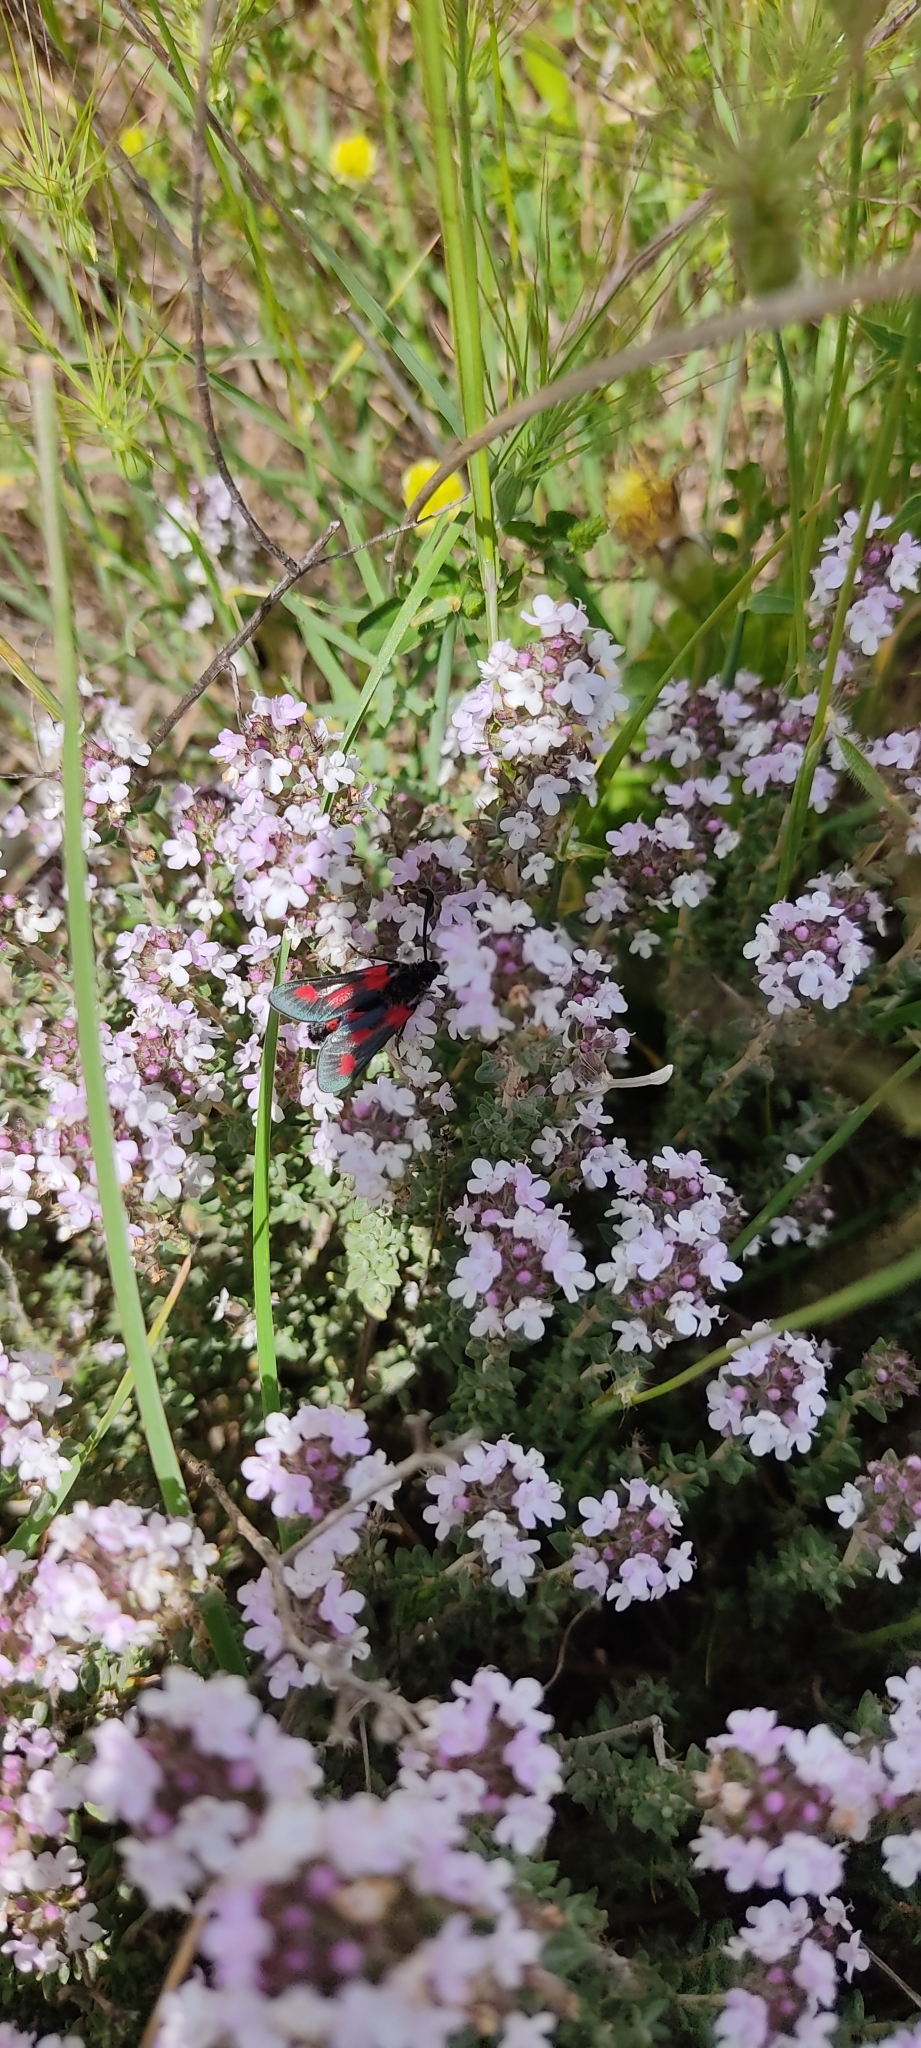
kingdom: Animalia
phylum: Arthropoda
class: Insecta
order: Lepidoptera
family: Zygaenidae
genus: Zygaena
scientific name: Zygaena sarpedon
